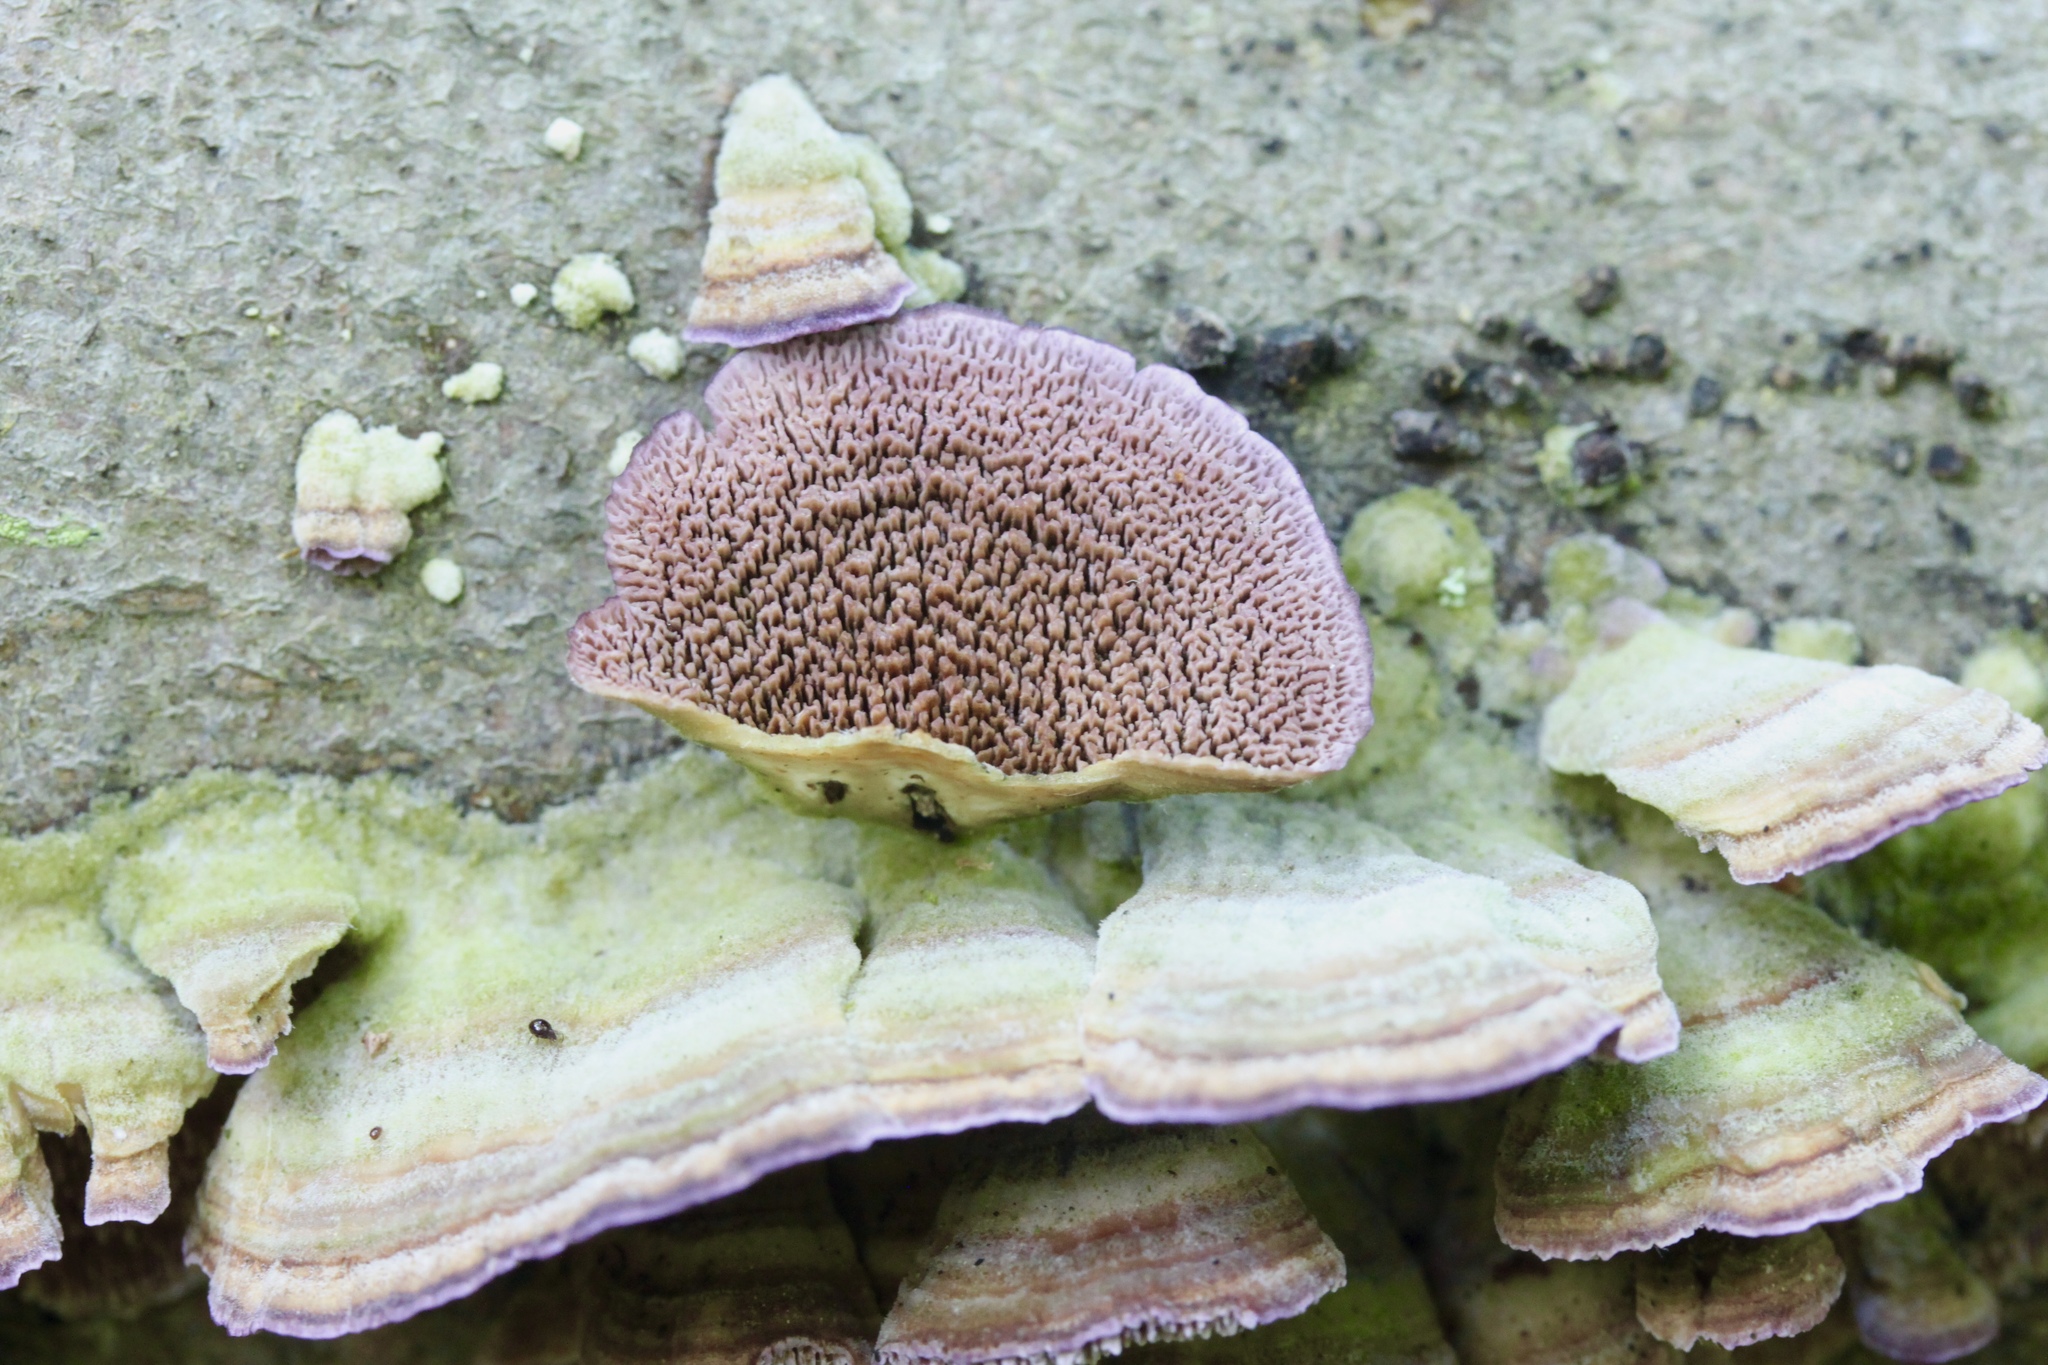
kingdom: Fungi
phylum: Basidiomycota
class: Agaricomycetes
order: Hymenochaetales
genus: Trichaptum
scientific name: Trichaptum biforme
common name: Violet-toothed polypore
